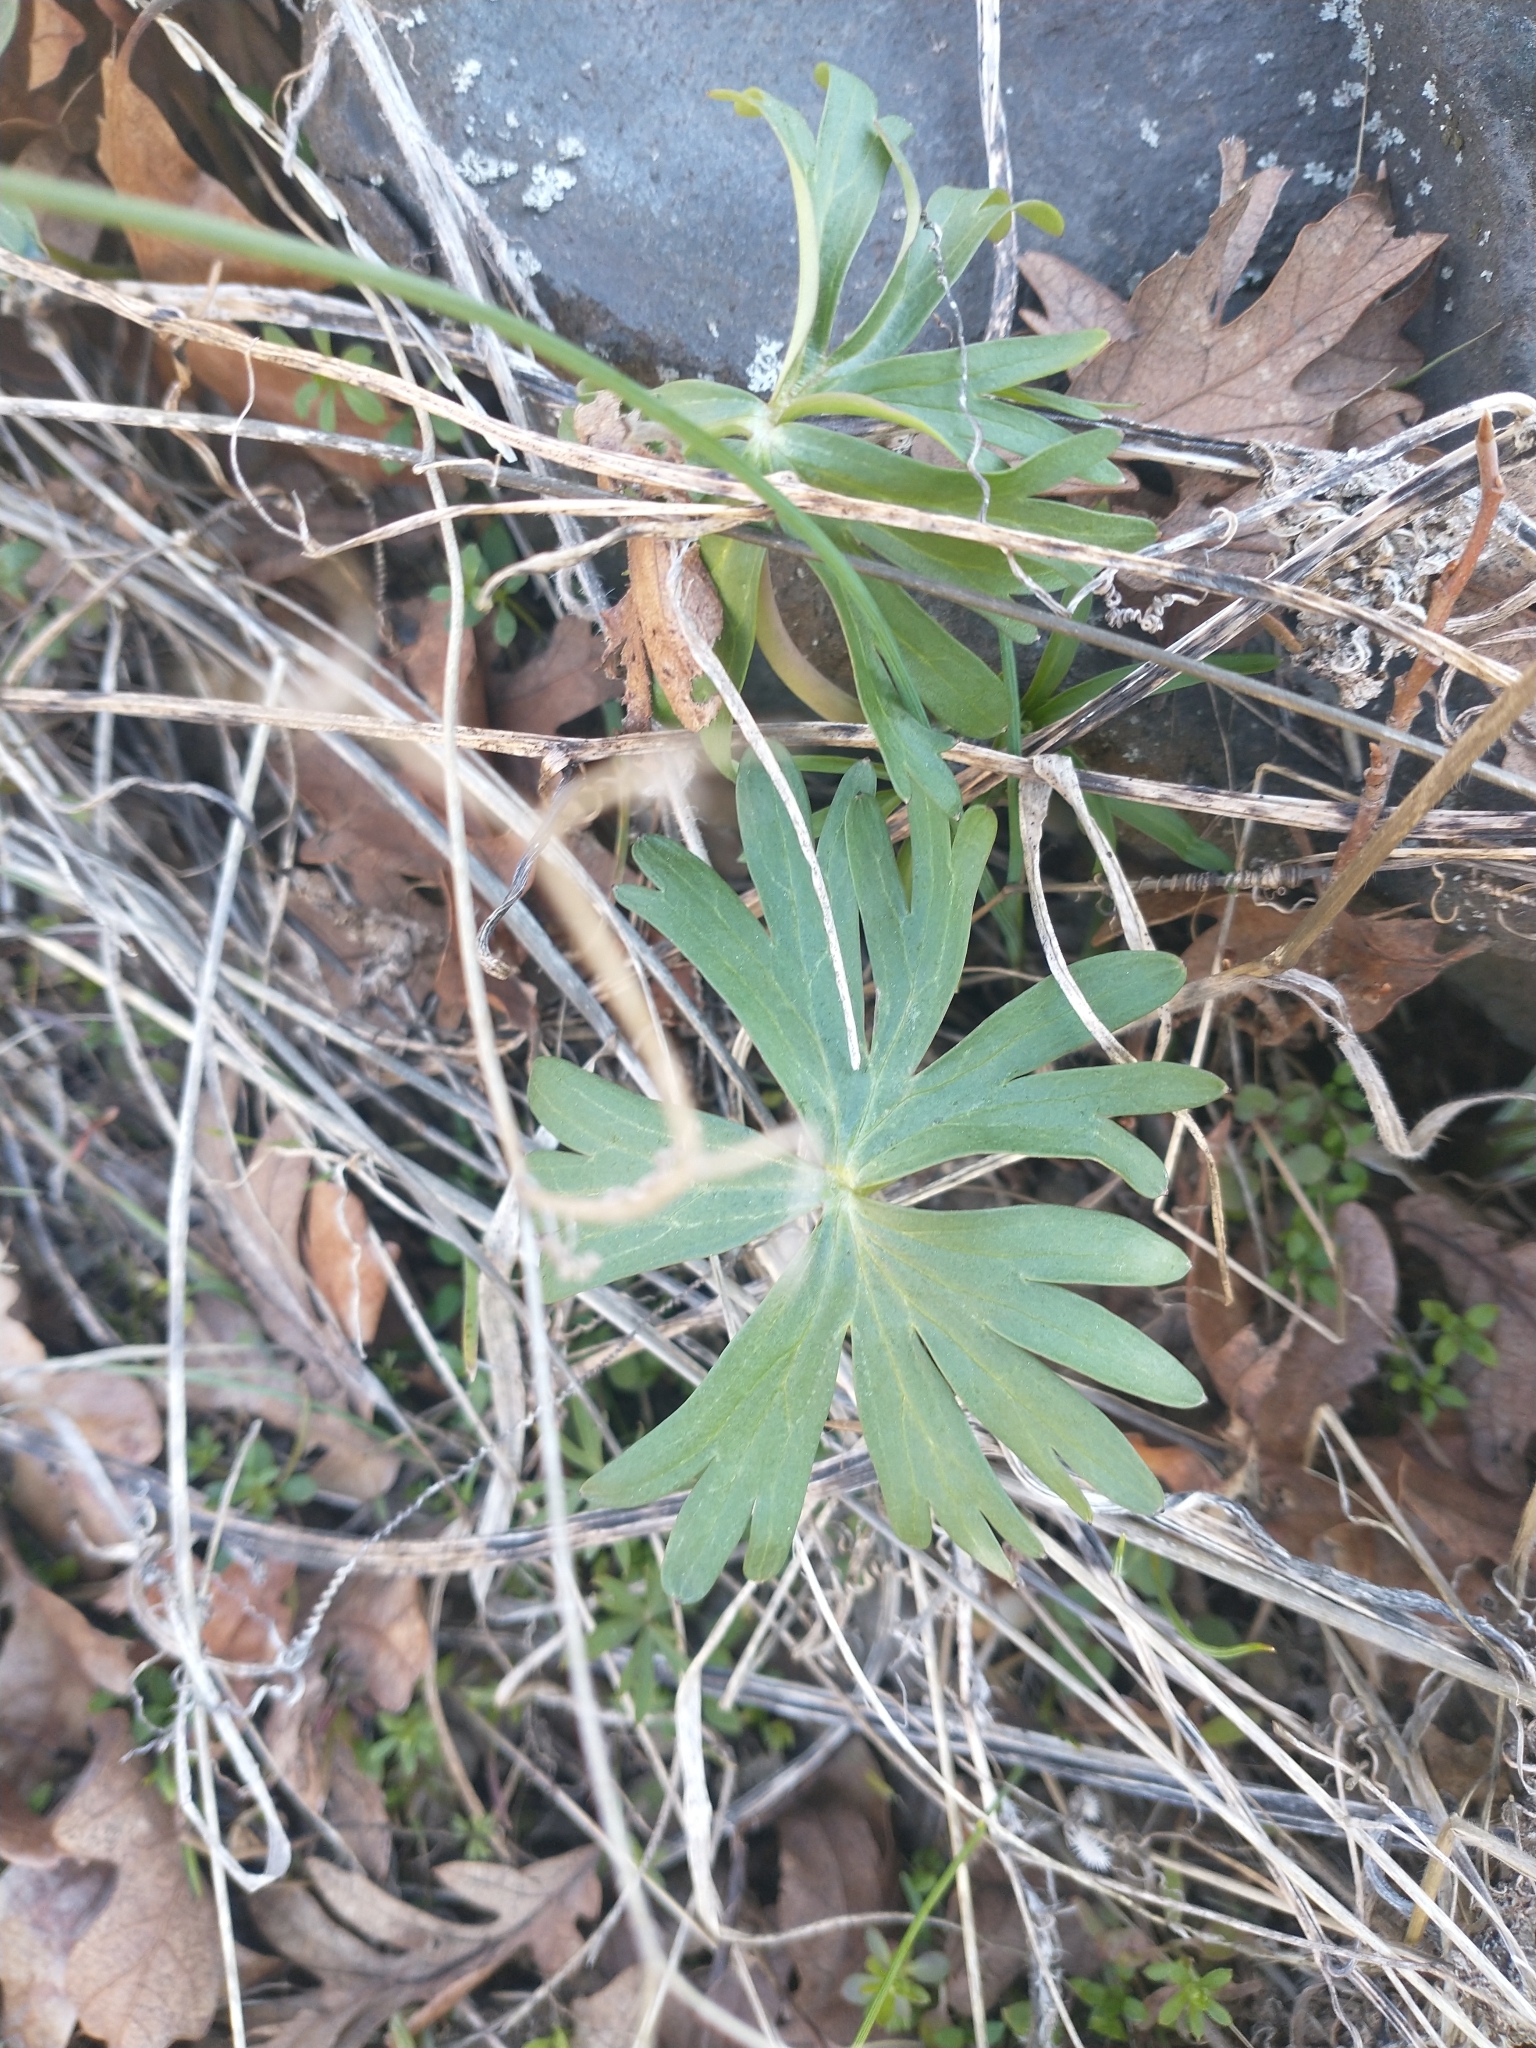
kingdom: Plantae
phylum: Tracheophyta
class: Magnoliopsida
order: Ranunculales
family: Ranunculaceae
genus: Delphinium
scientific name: Delphinium nuttallianum
